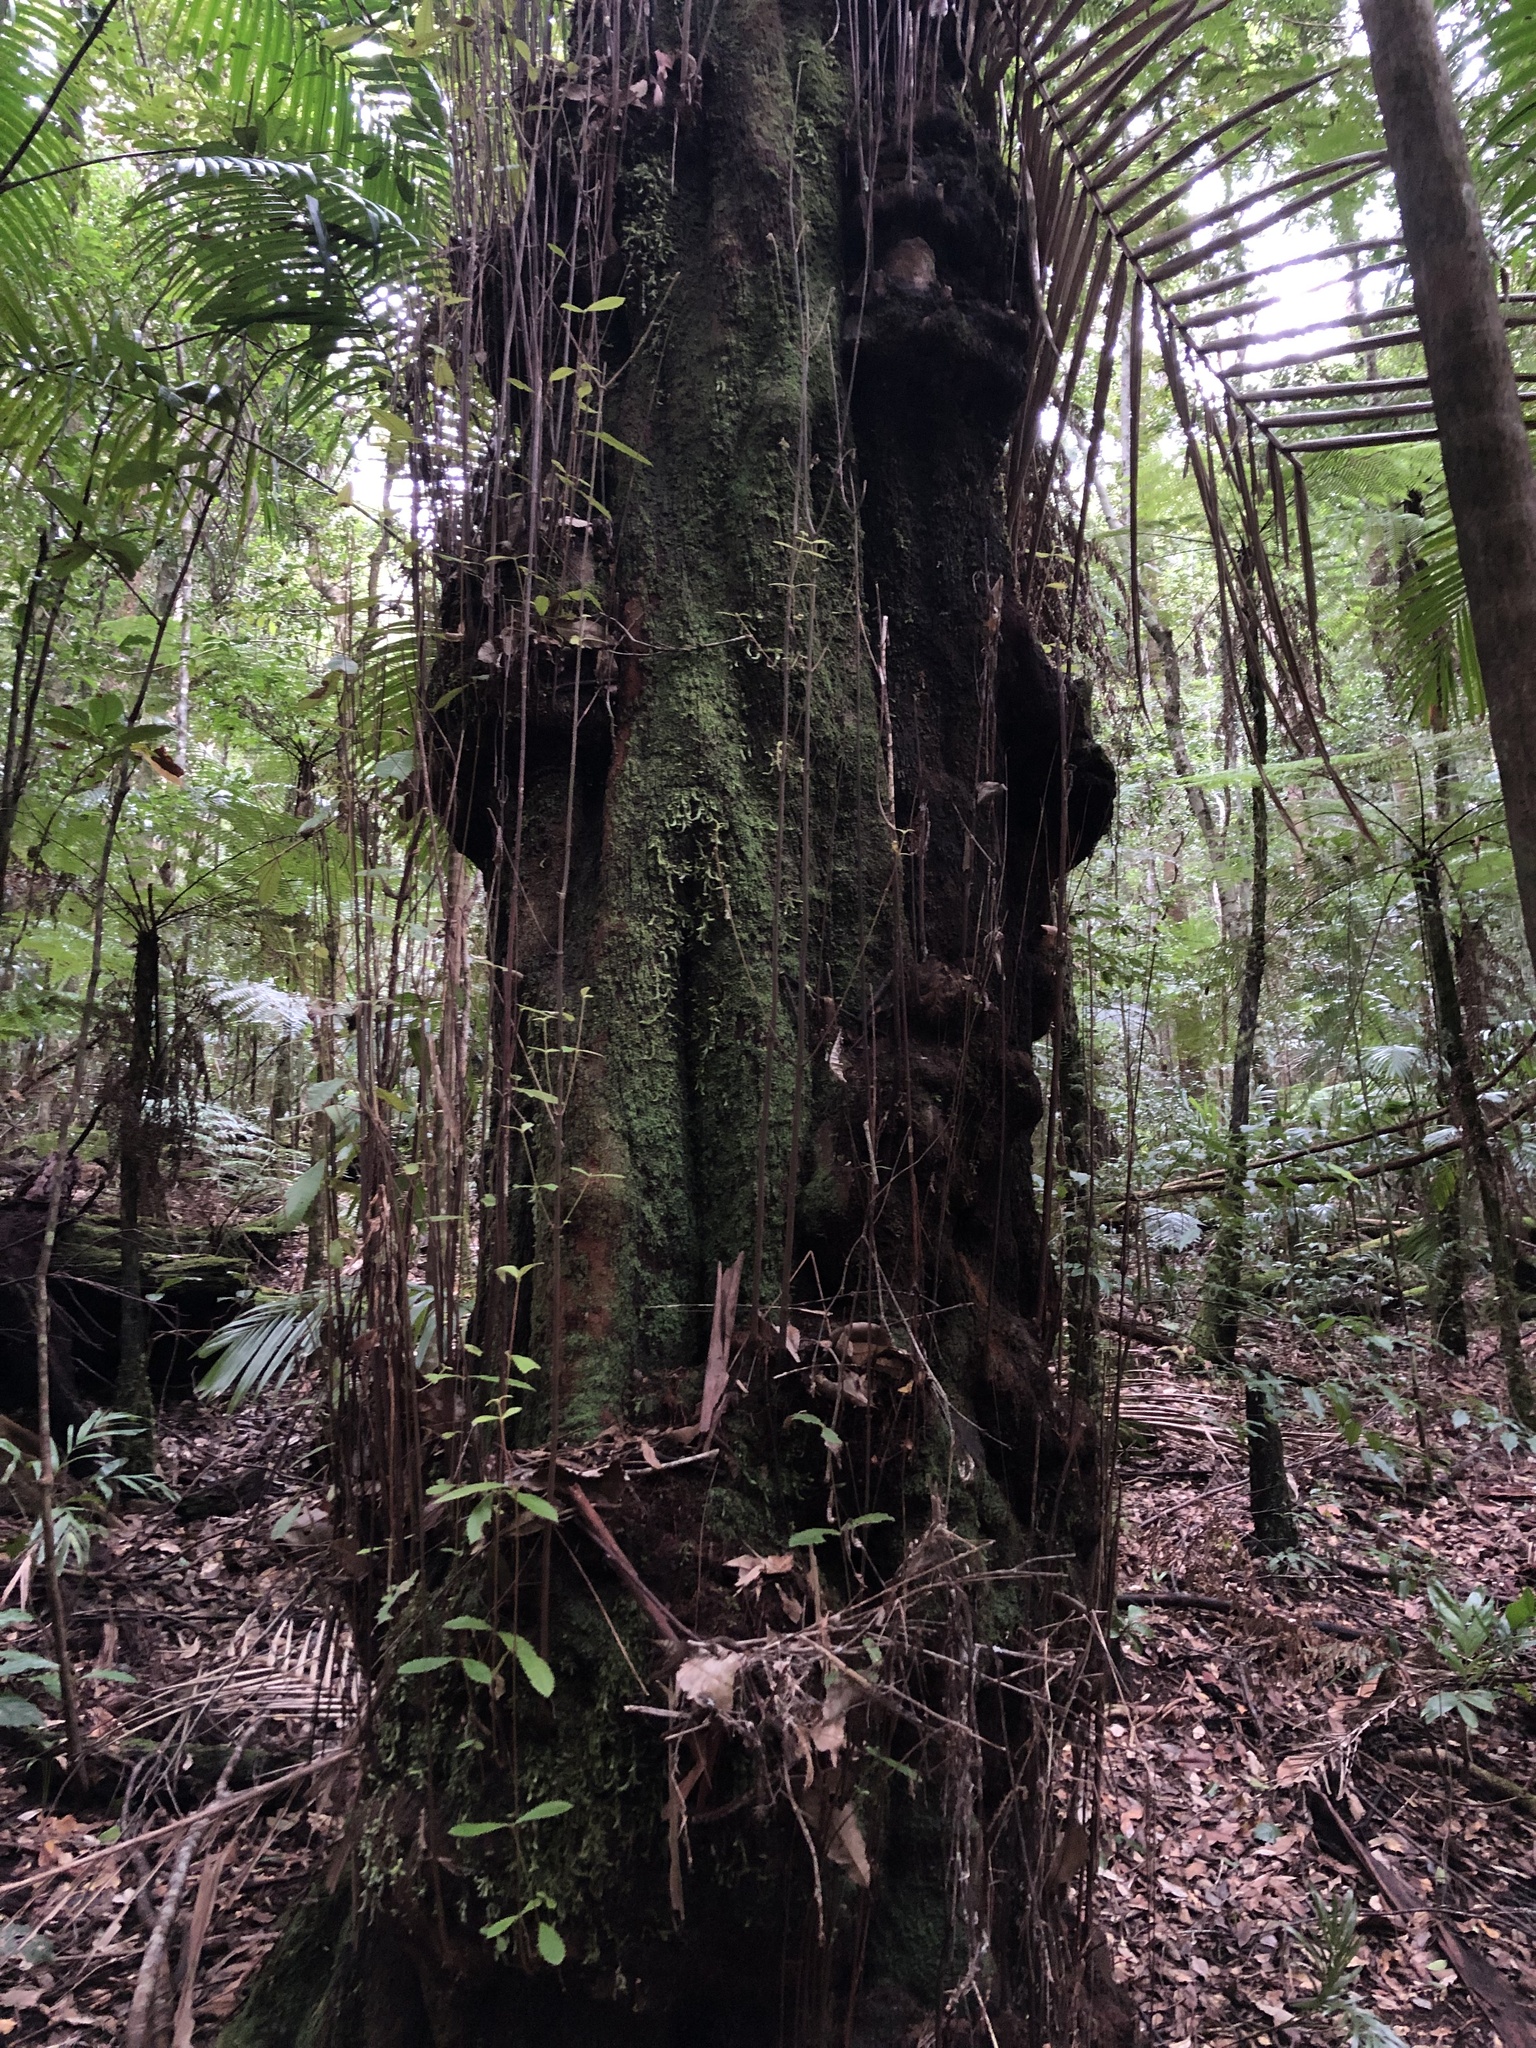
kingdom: Plantae
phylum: Tracheophyta
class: Magnoliopsida
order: Oxalidales
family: Cunoniaceae
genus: Callicoma
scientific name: Callicoma serratifolia
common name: Black wattle
